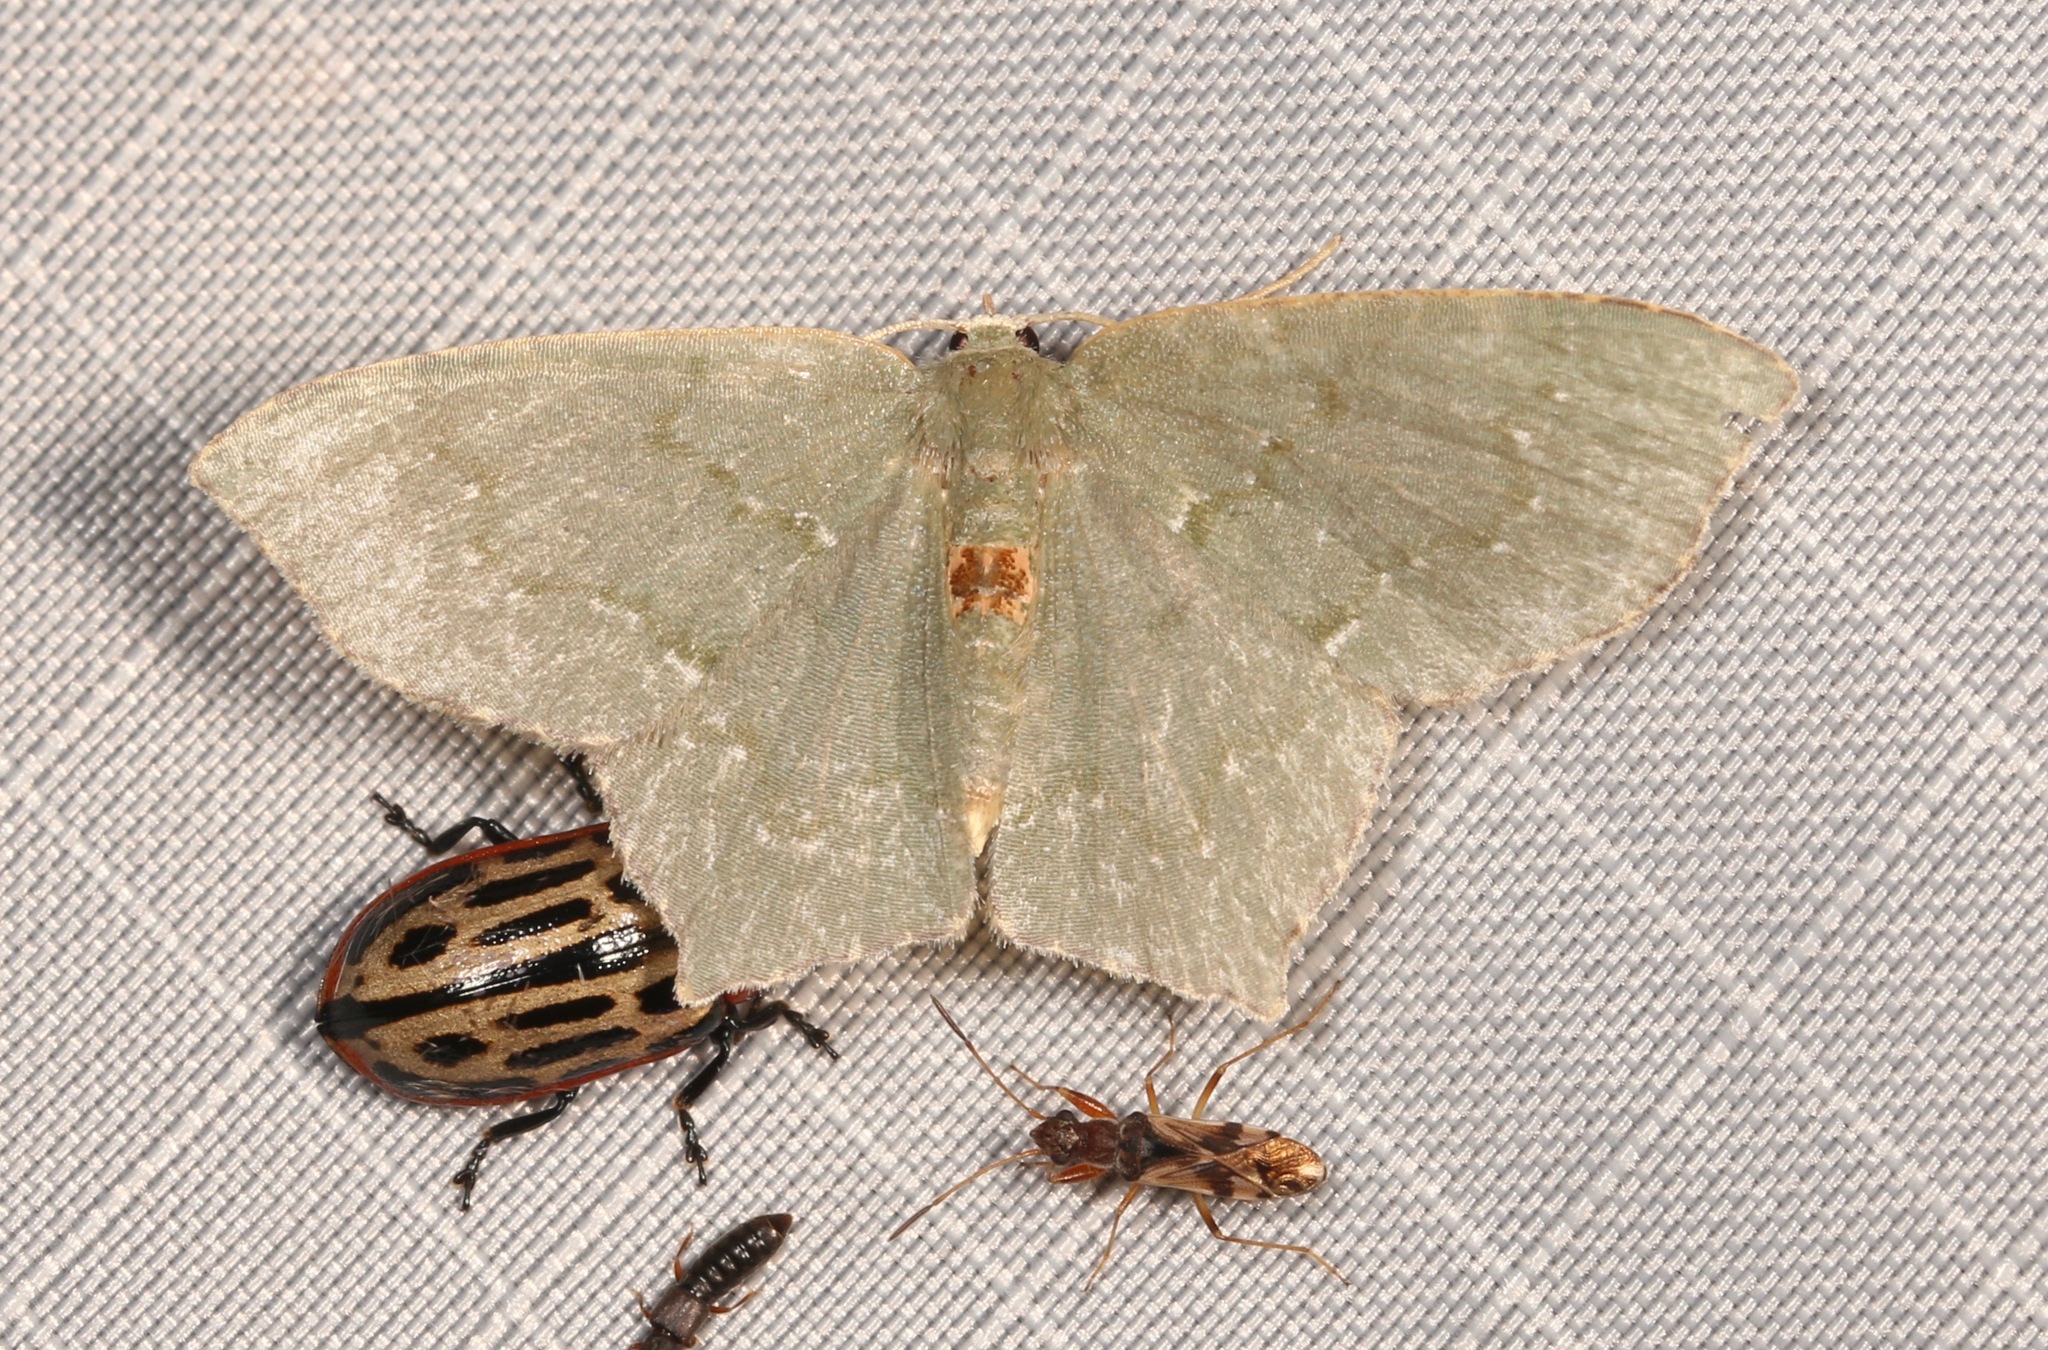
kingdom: Animalia
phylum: Arthropoda
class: Insecta
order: Lepidoptera
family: Geometridae
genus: Chloropteryx
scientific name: Chloropteryx tepperaria
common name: Angle winged emerald moth
